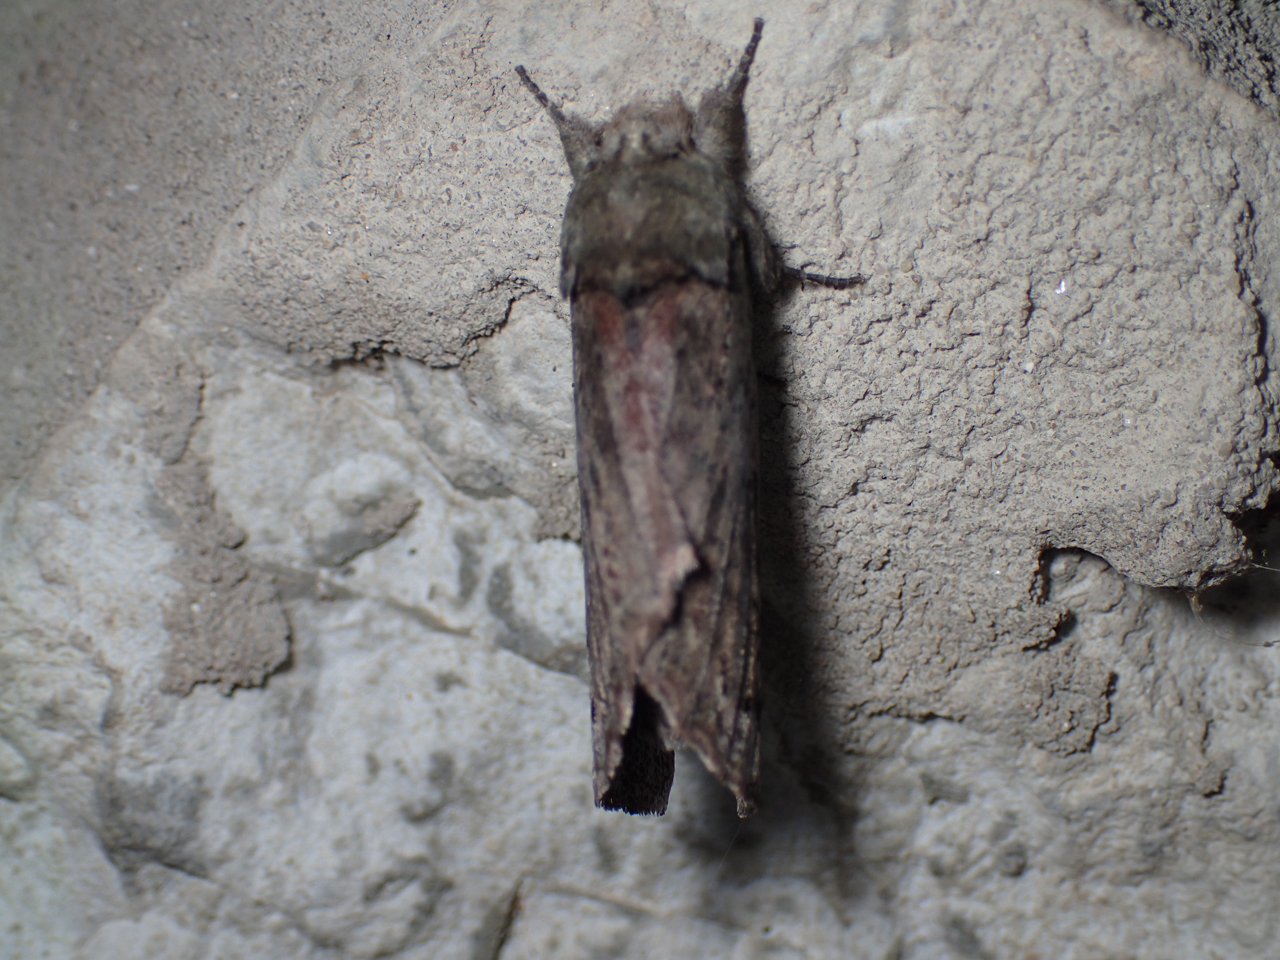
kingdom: Animalia
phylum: Arthropoda
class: Insecta
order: Lepidoptera
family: Notodontidae
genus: Schizura
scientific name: Schizura
